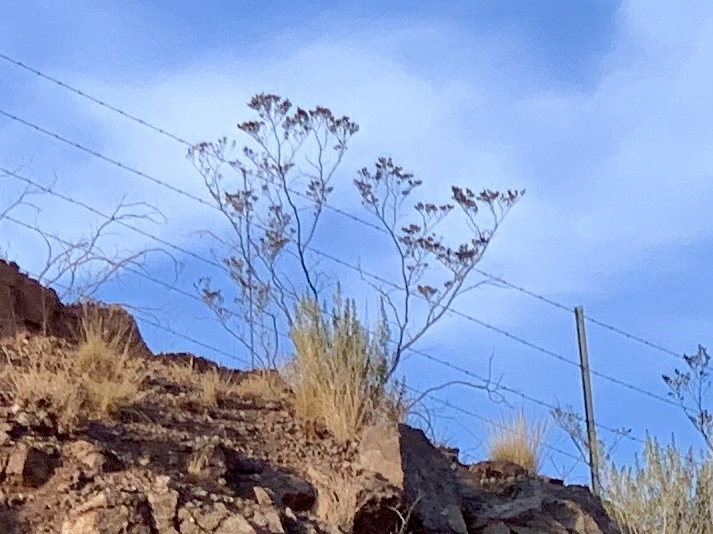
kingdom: Plantae
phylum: Tracheophyta
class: Magnoliopsida
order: Zygophyllales
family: Zygophyllaceae
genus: Larrea
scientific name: Larrea tridentata
